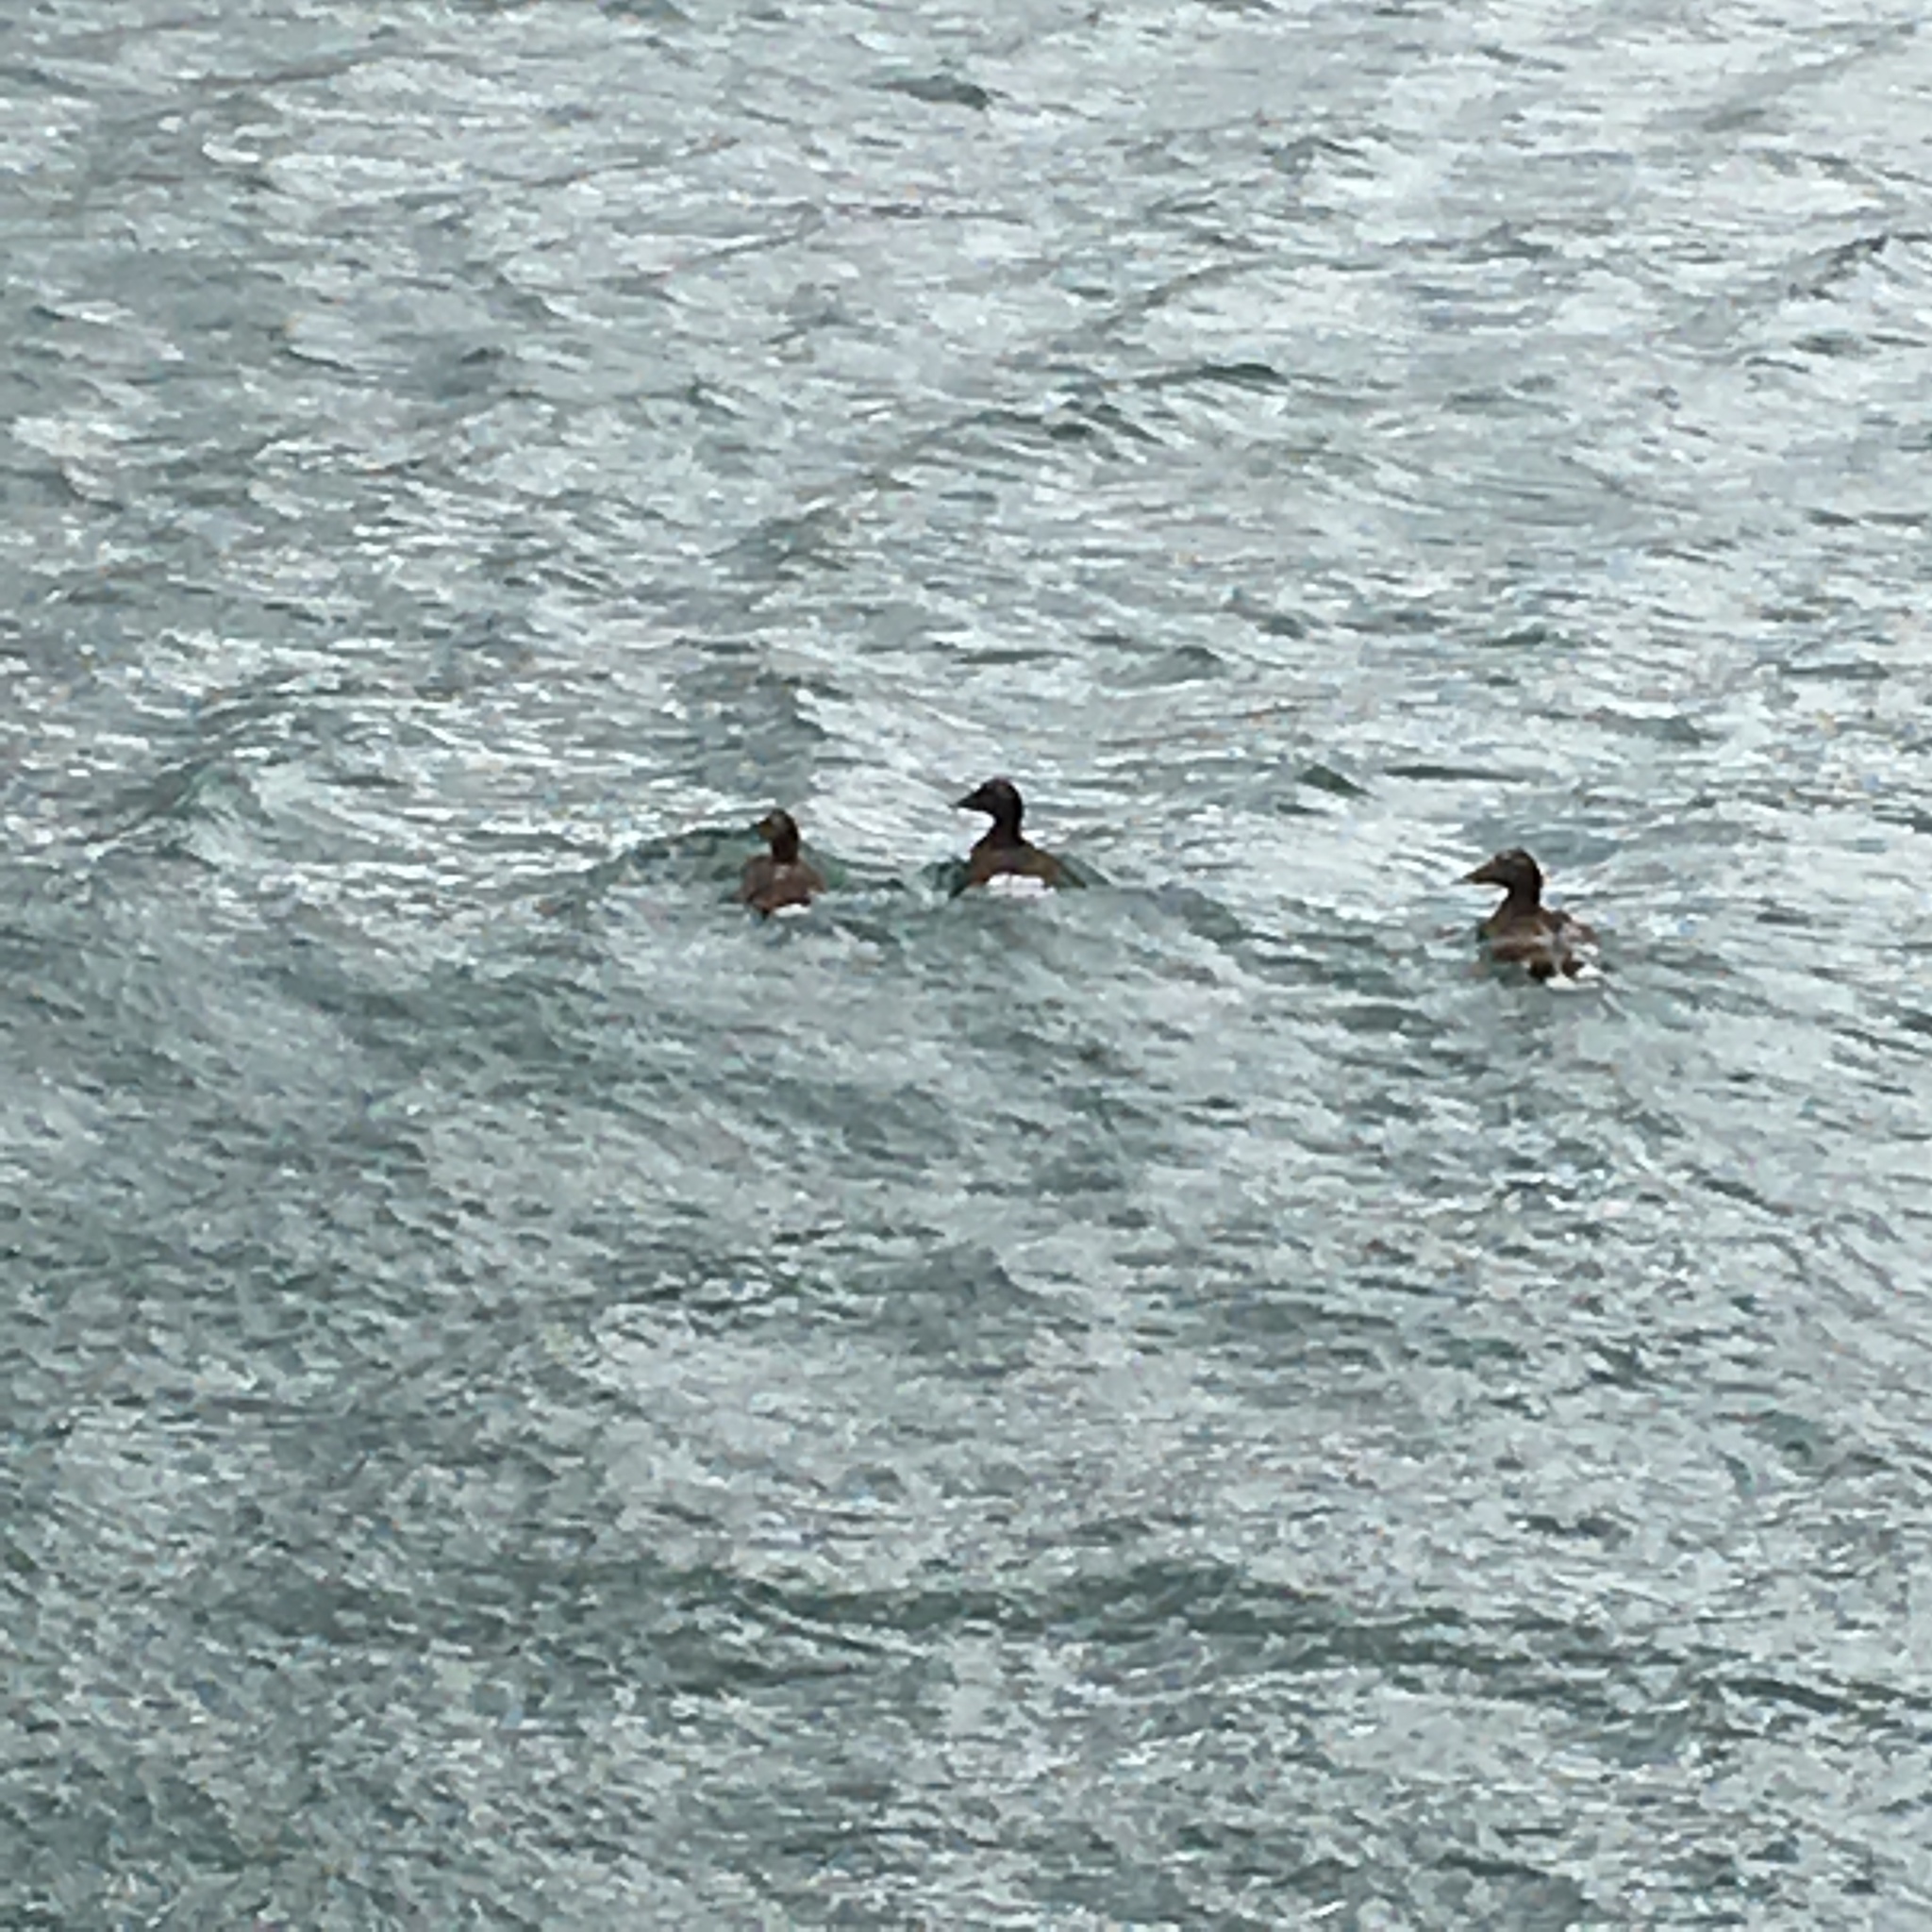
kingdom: Animalia
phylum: Chordata
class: Aves
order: Anseriformes
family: Anatidae
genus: Somateria
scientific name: Somateria mollissima
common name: Common eider
